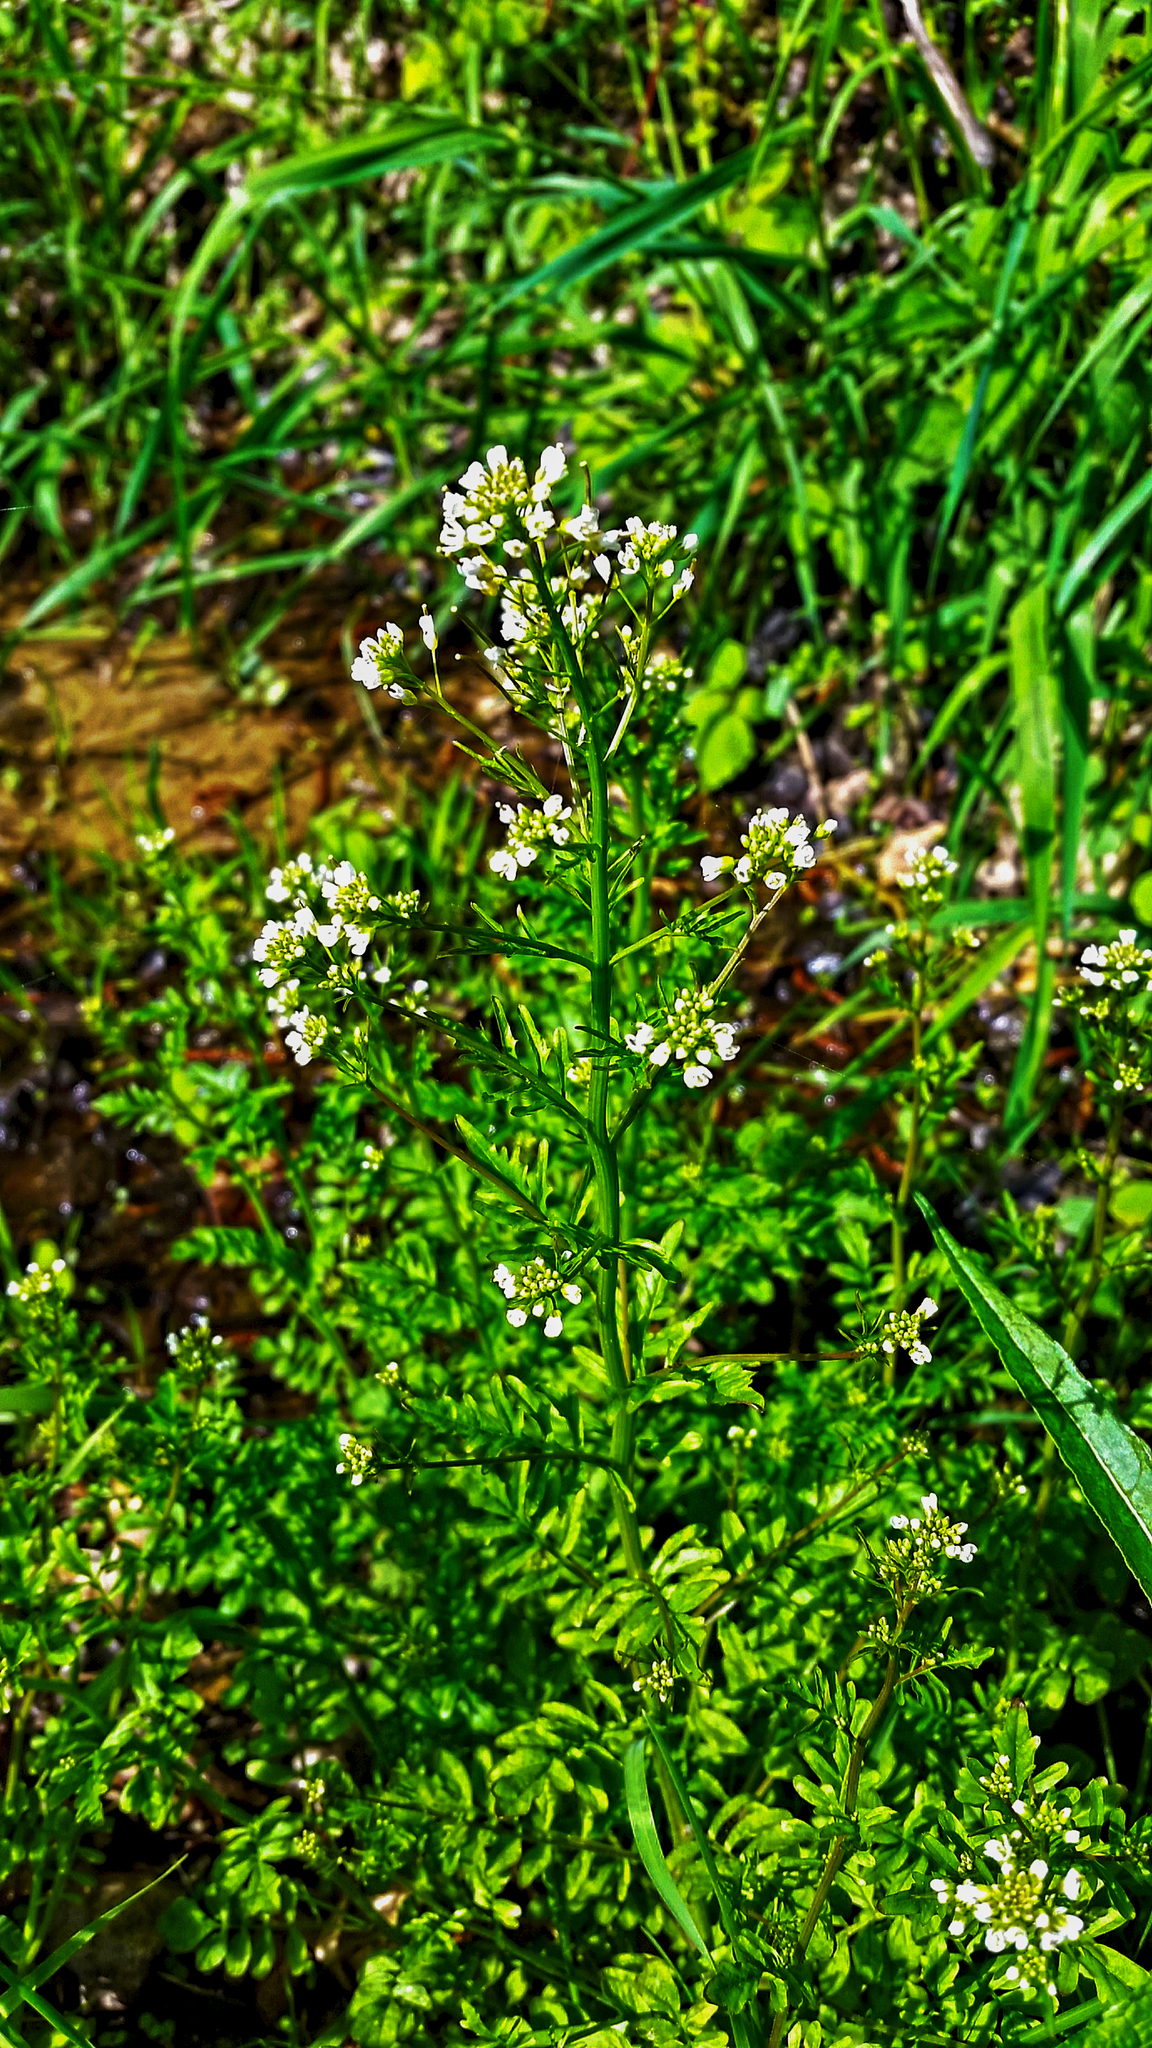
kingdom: Plantae
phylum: Tracheophyta
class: Magnoliopsida
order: Brassicales
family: Brassicaceae
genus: Nasturtium
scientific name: Nasturtium officinale
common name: Watercress
